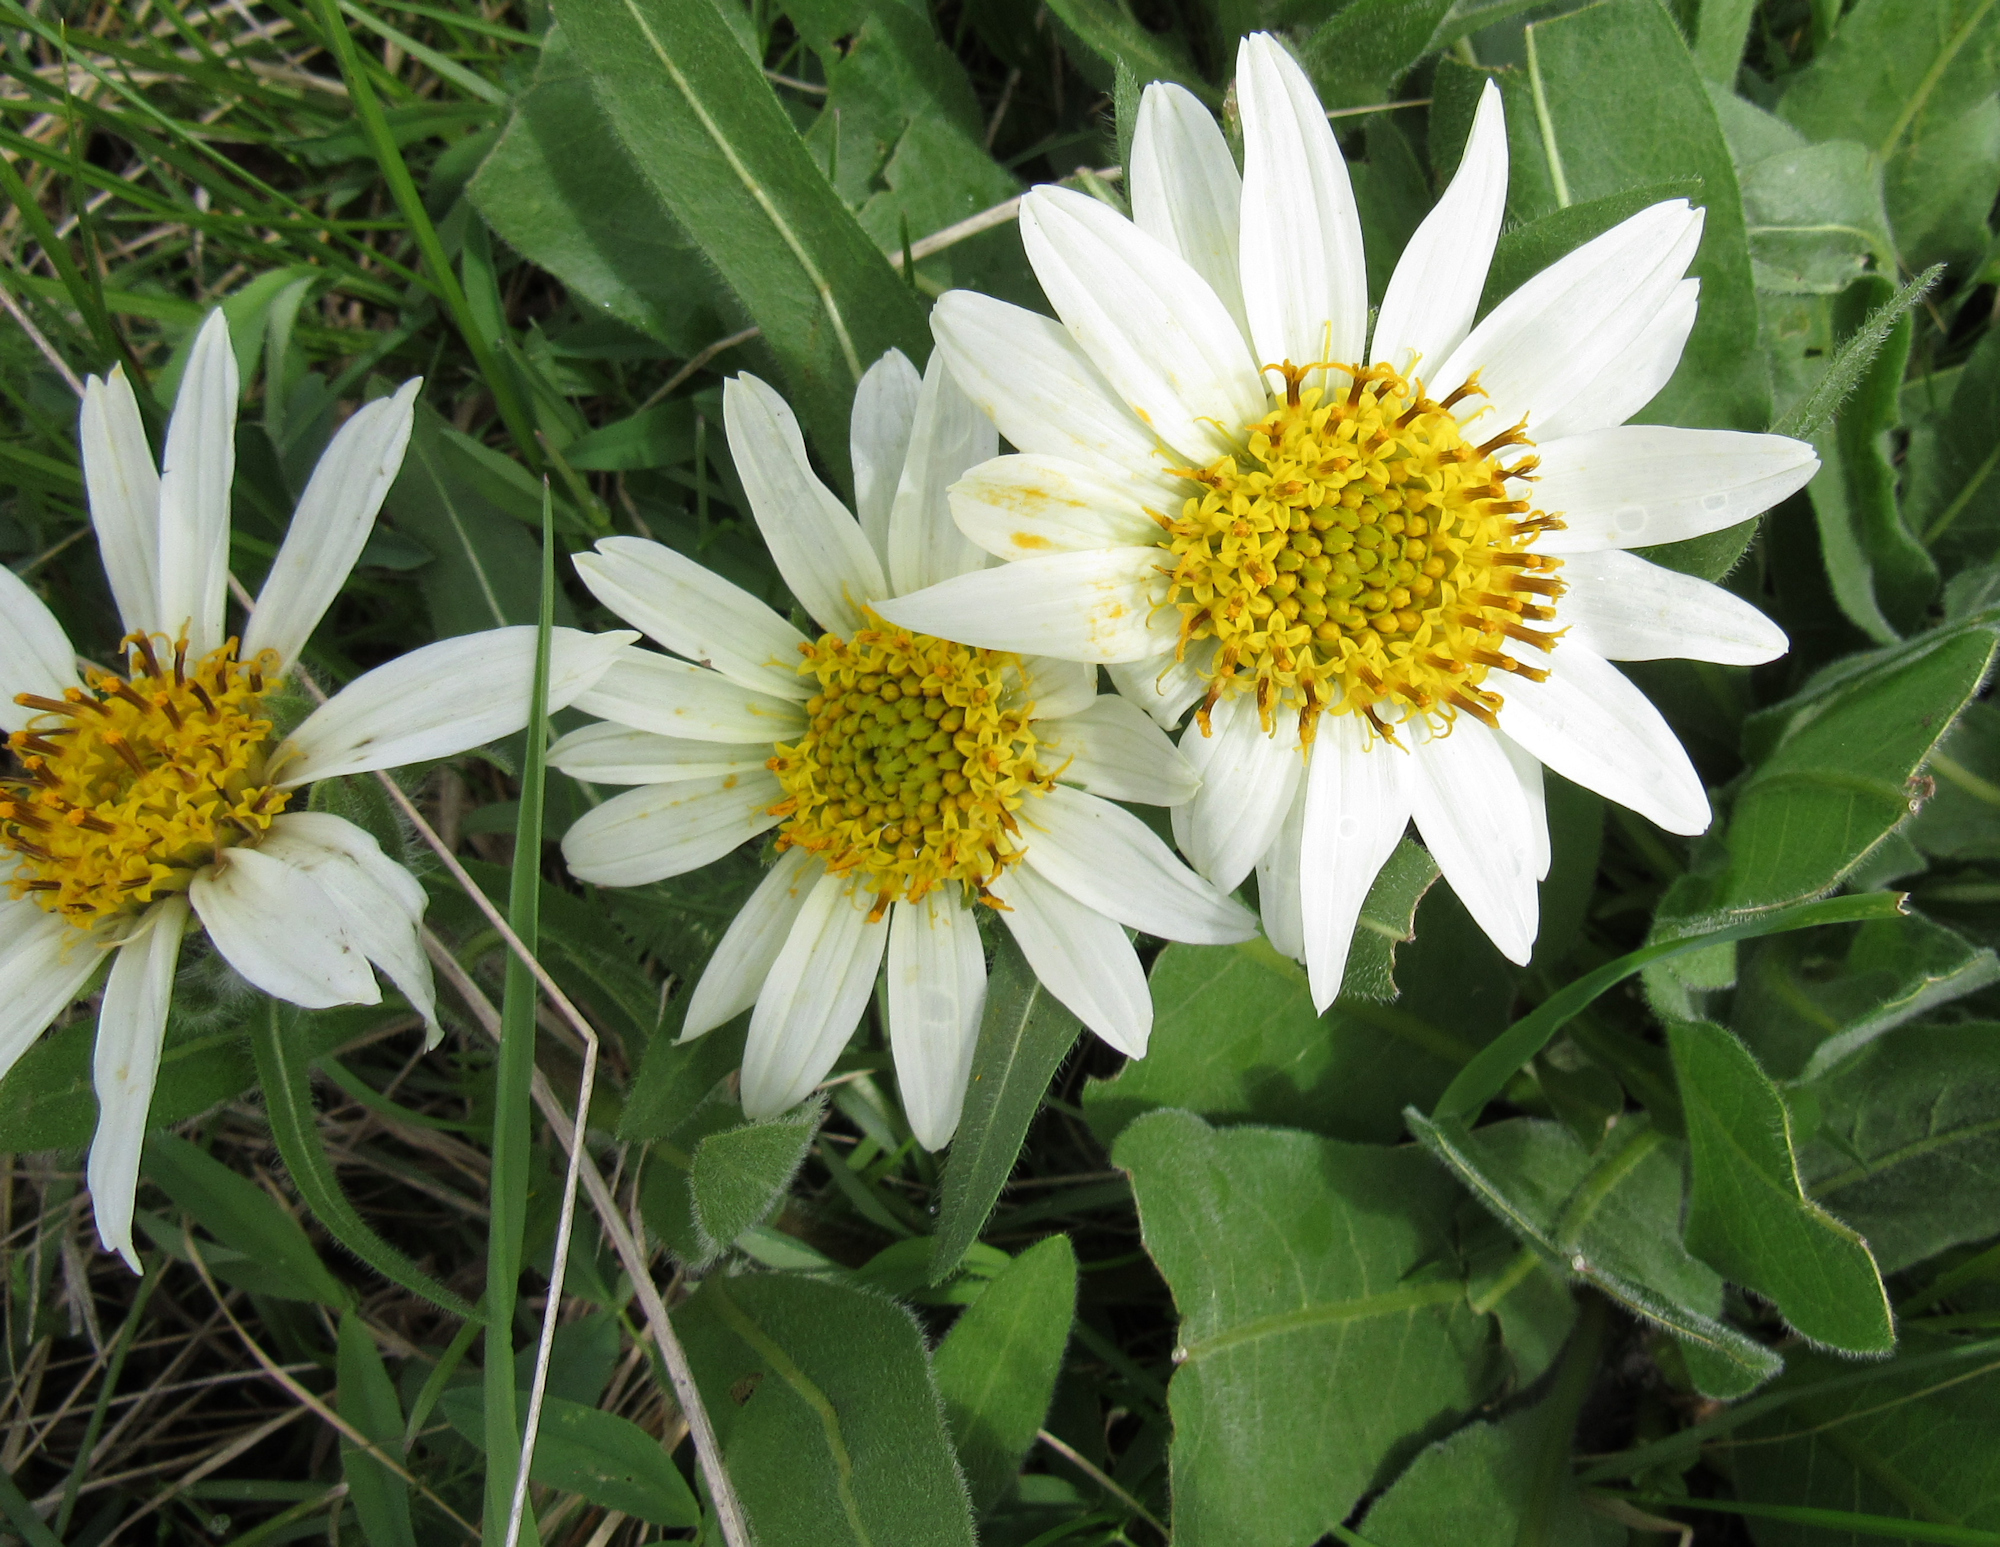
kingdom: Plantae
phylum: Tracheophyta
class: Magnoliopsida
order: Asterales
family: Asteraceae
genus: Wyethia
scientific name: Wyethia helianthoides
